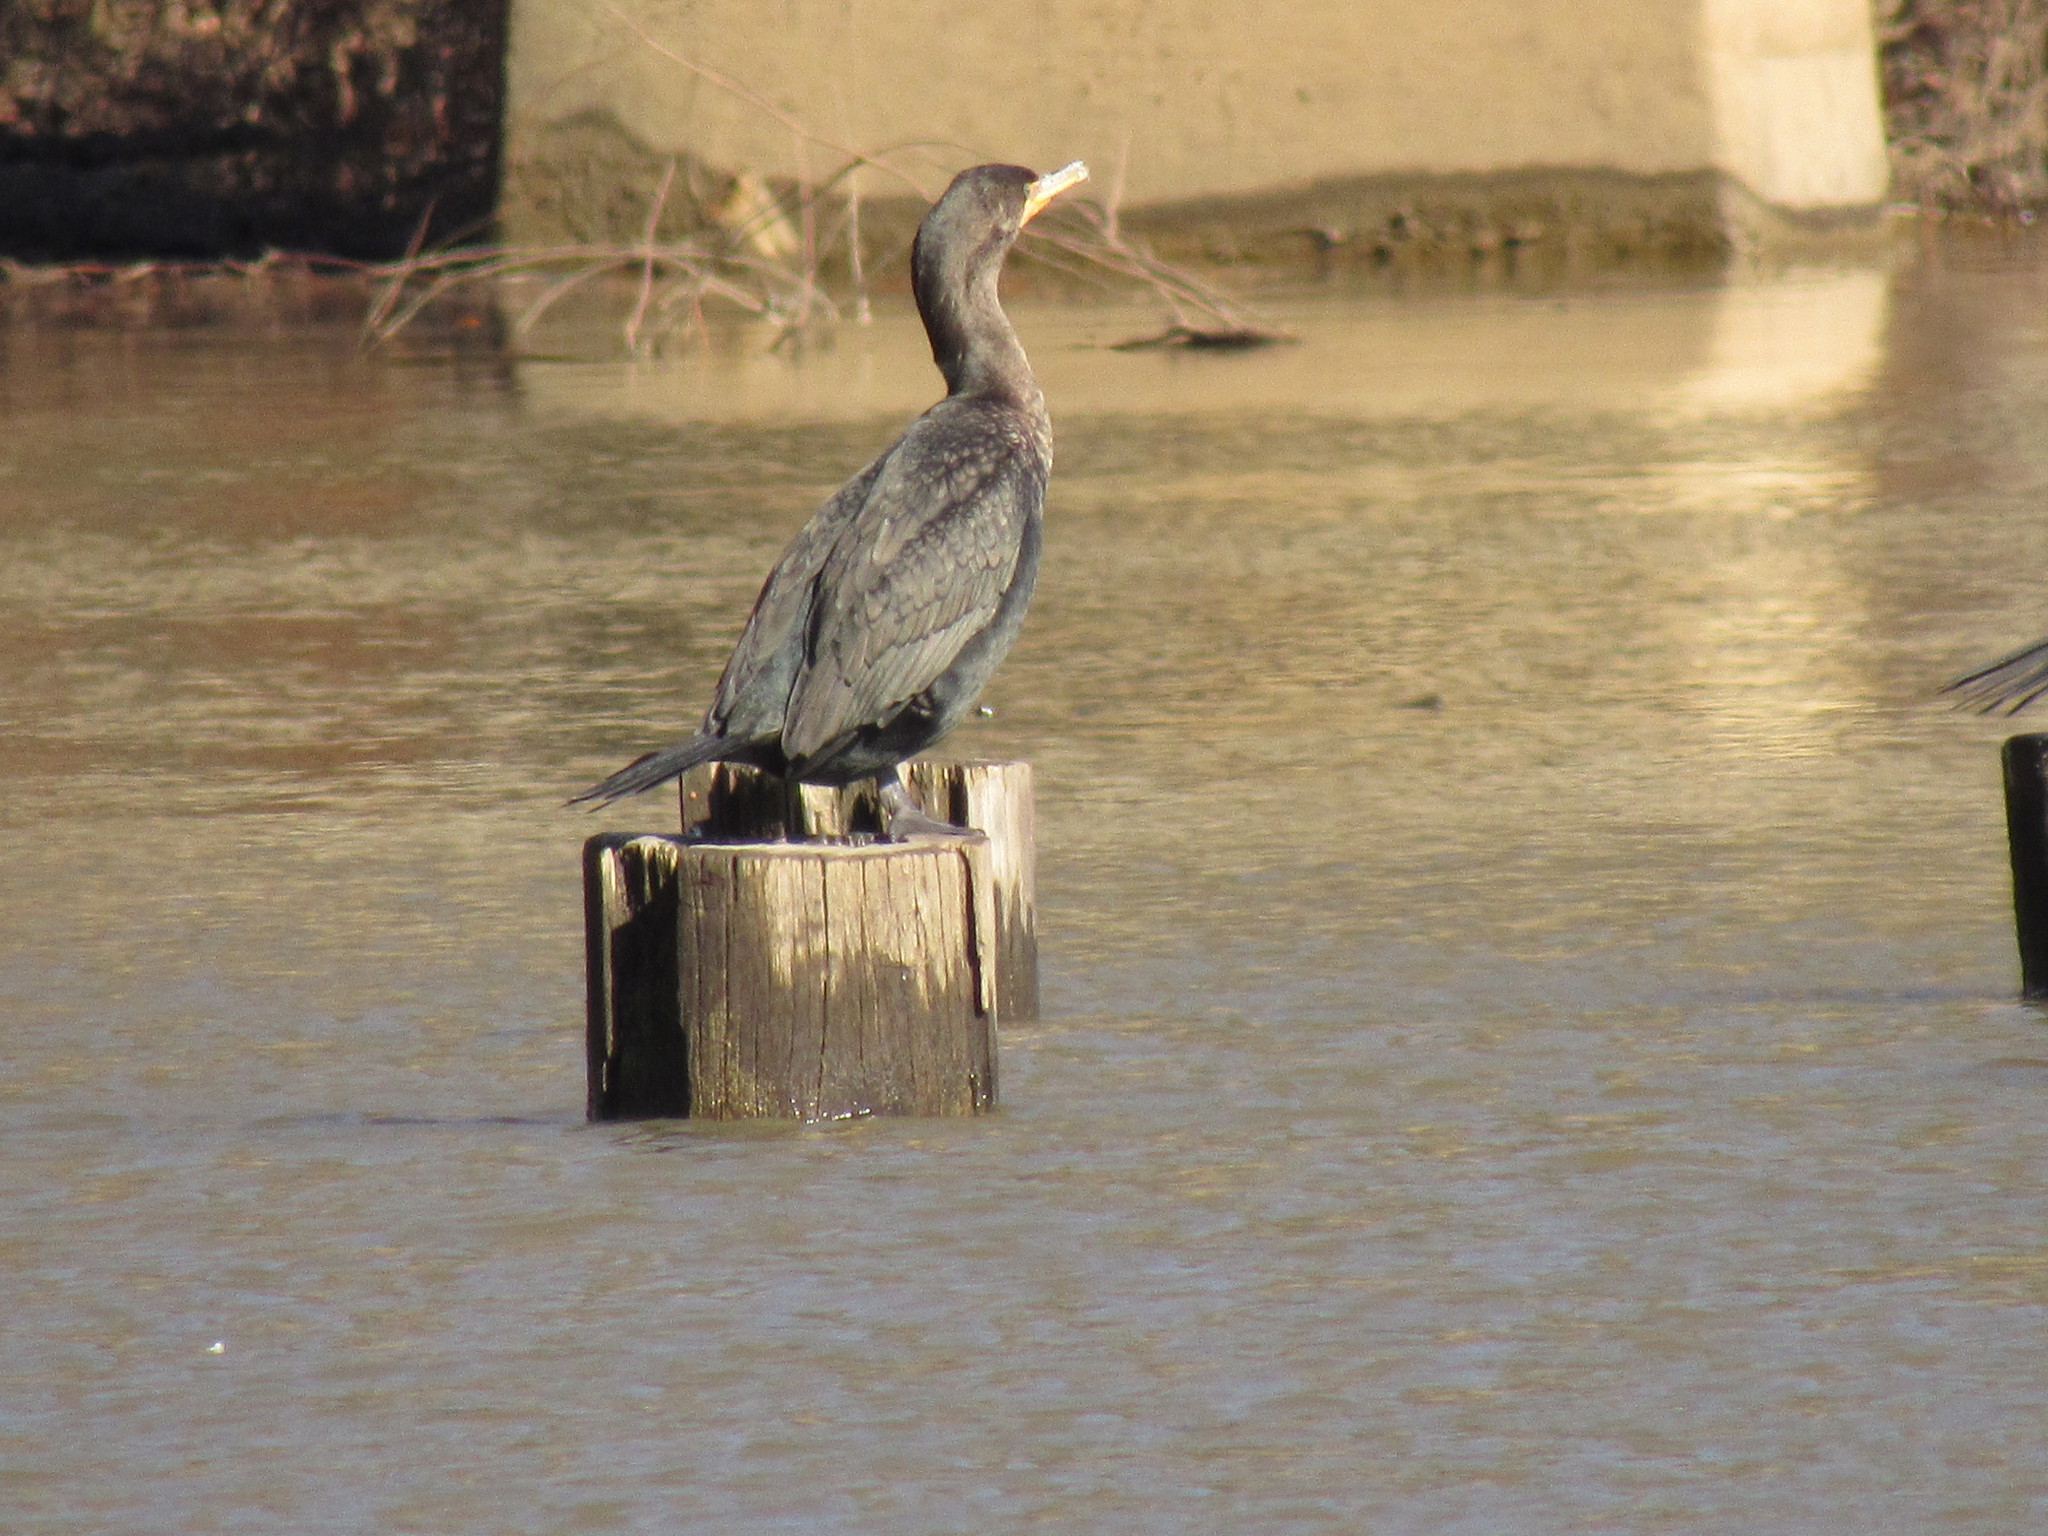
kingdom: Animalia
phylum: Chordata
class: Aves
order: Suliformes
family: Phalacrocoracidae
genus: Phalacrocorax
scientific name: Phalacrocorax auritus
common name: Double-crested cormorant
